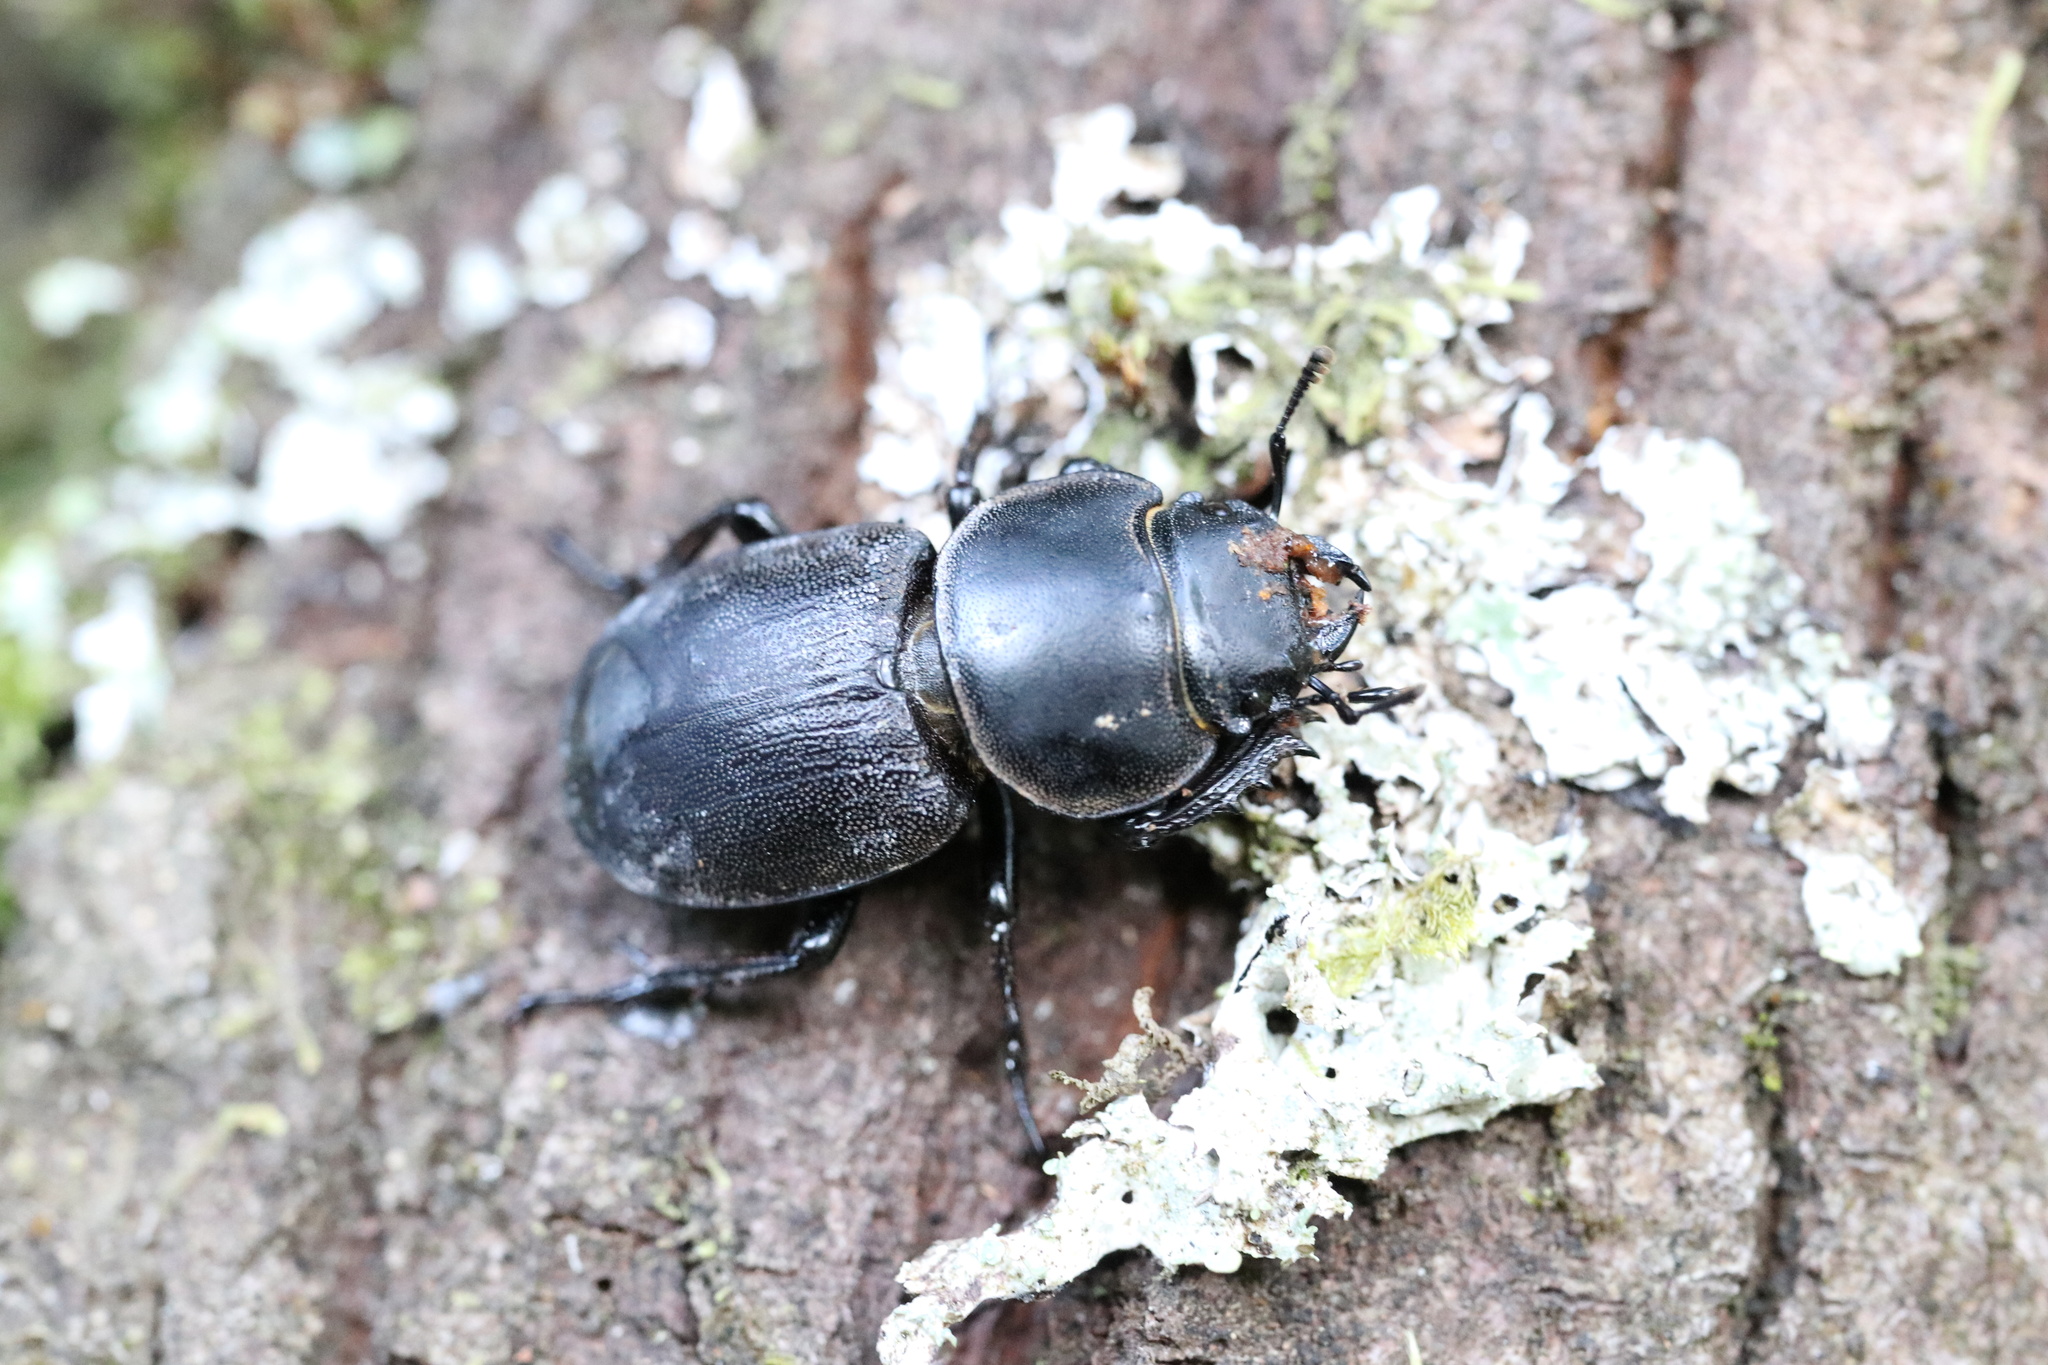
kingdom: Animalia
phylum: Arthropoda
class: Insecta
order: Coleoptera
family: Lucanidae
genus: Apterodorcus
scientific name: Apterodorcus bacchus
